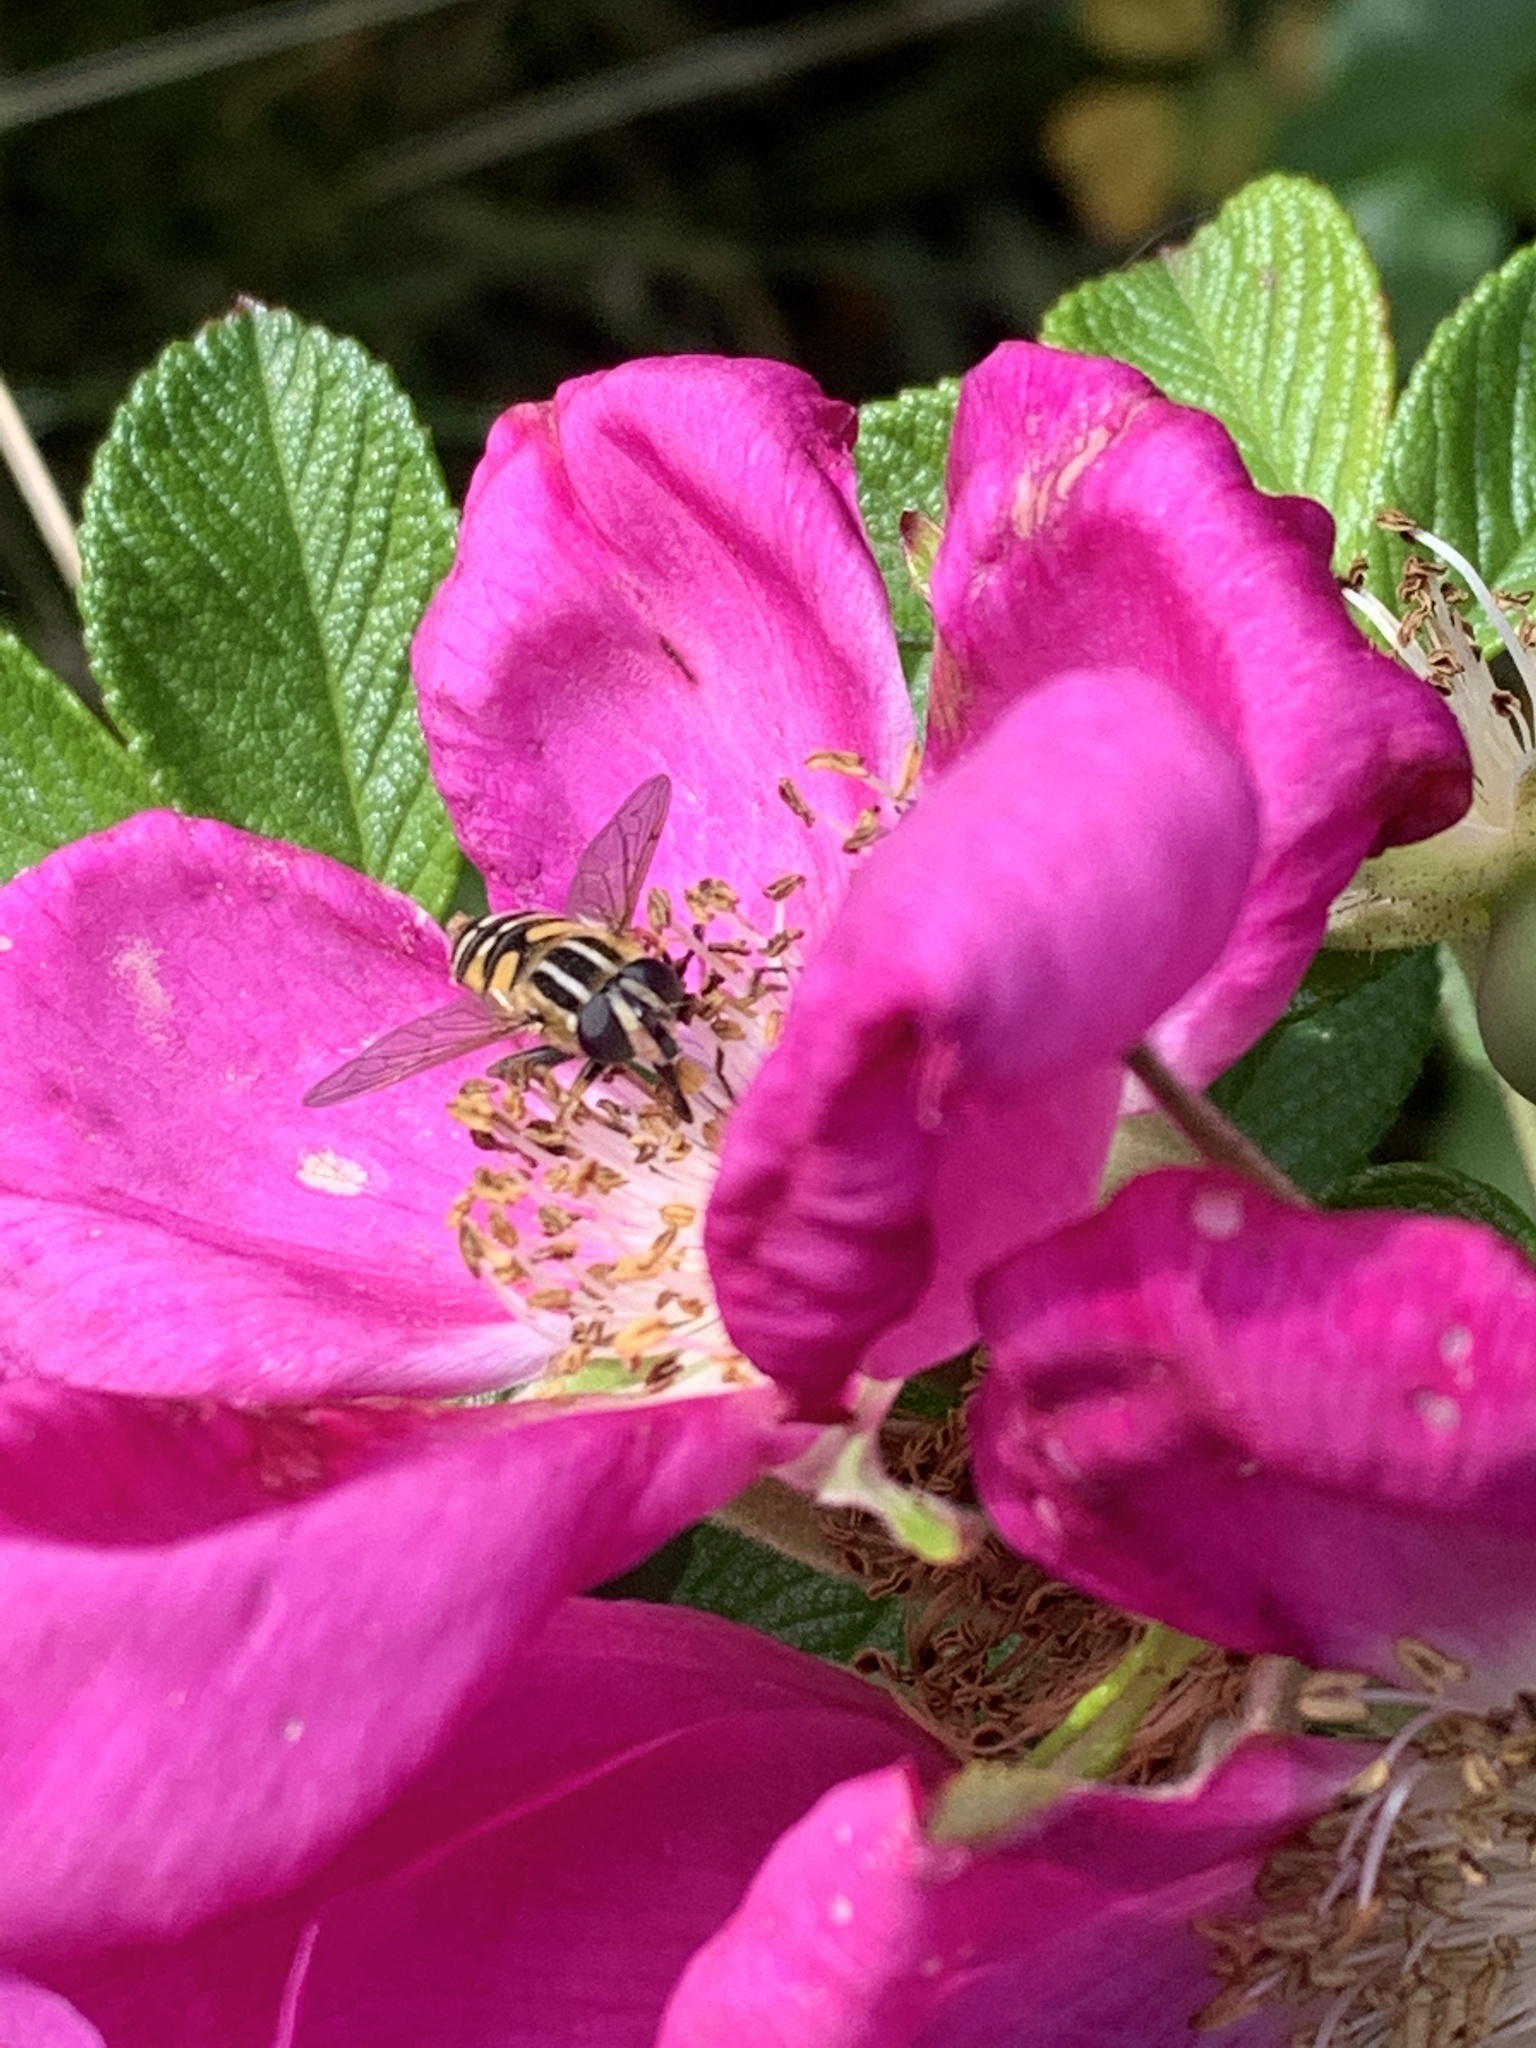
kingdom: Plantae
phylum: Tracheophyta
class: Magnoliopsida
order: Rosales
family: Rosaceae
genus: Rosa
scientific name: Rosa rugosa
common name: Japanese rose
